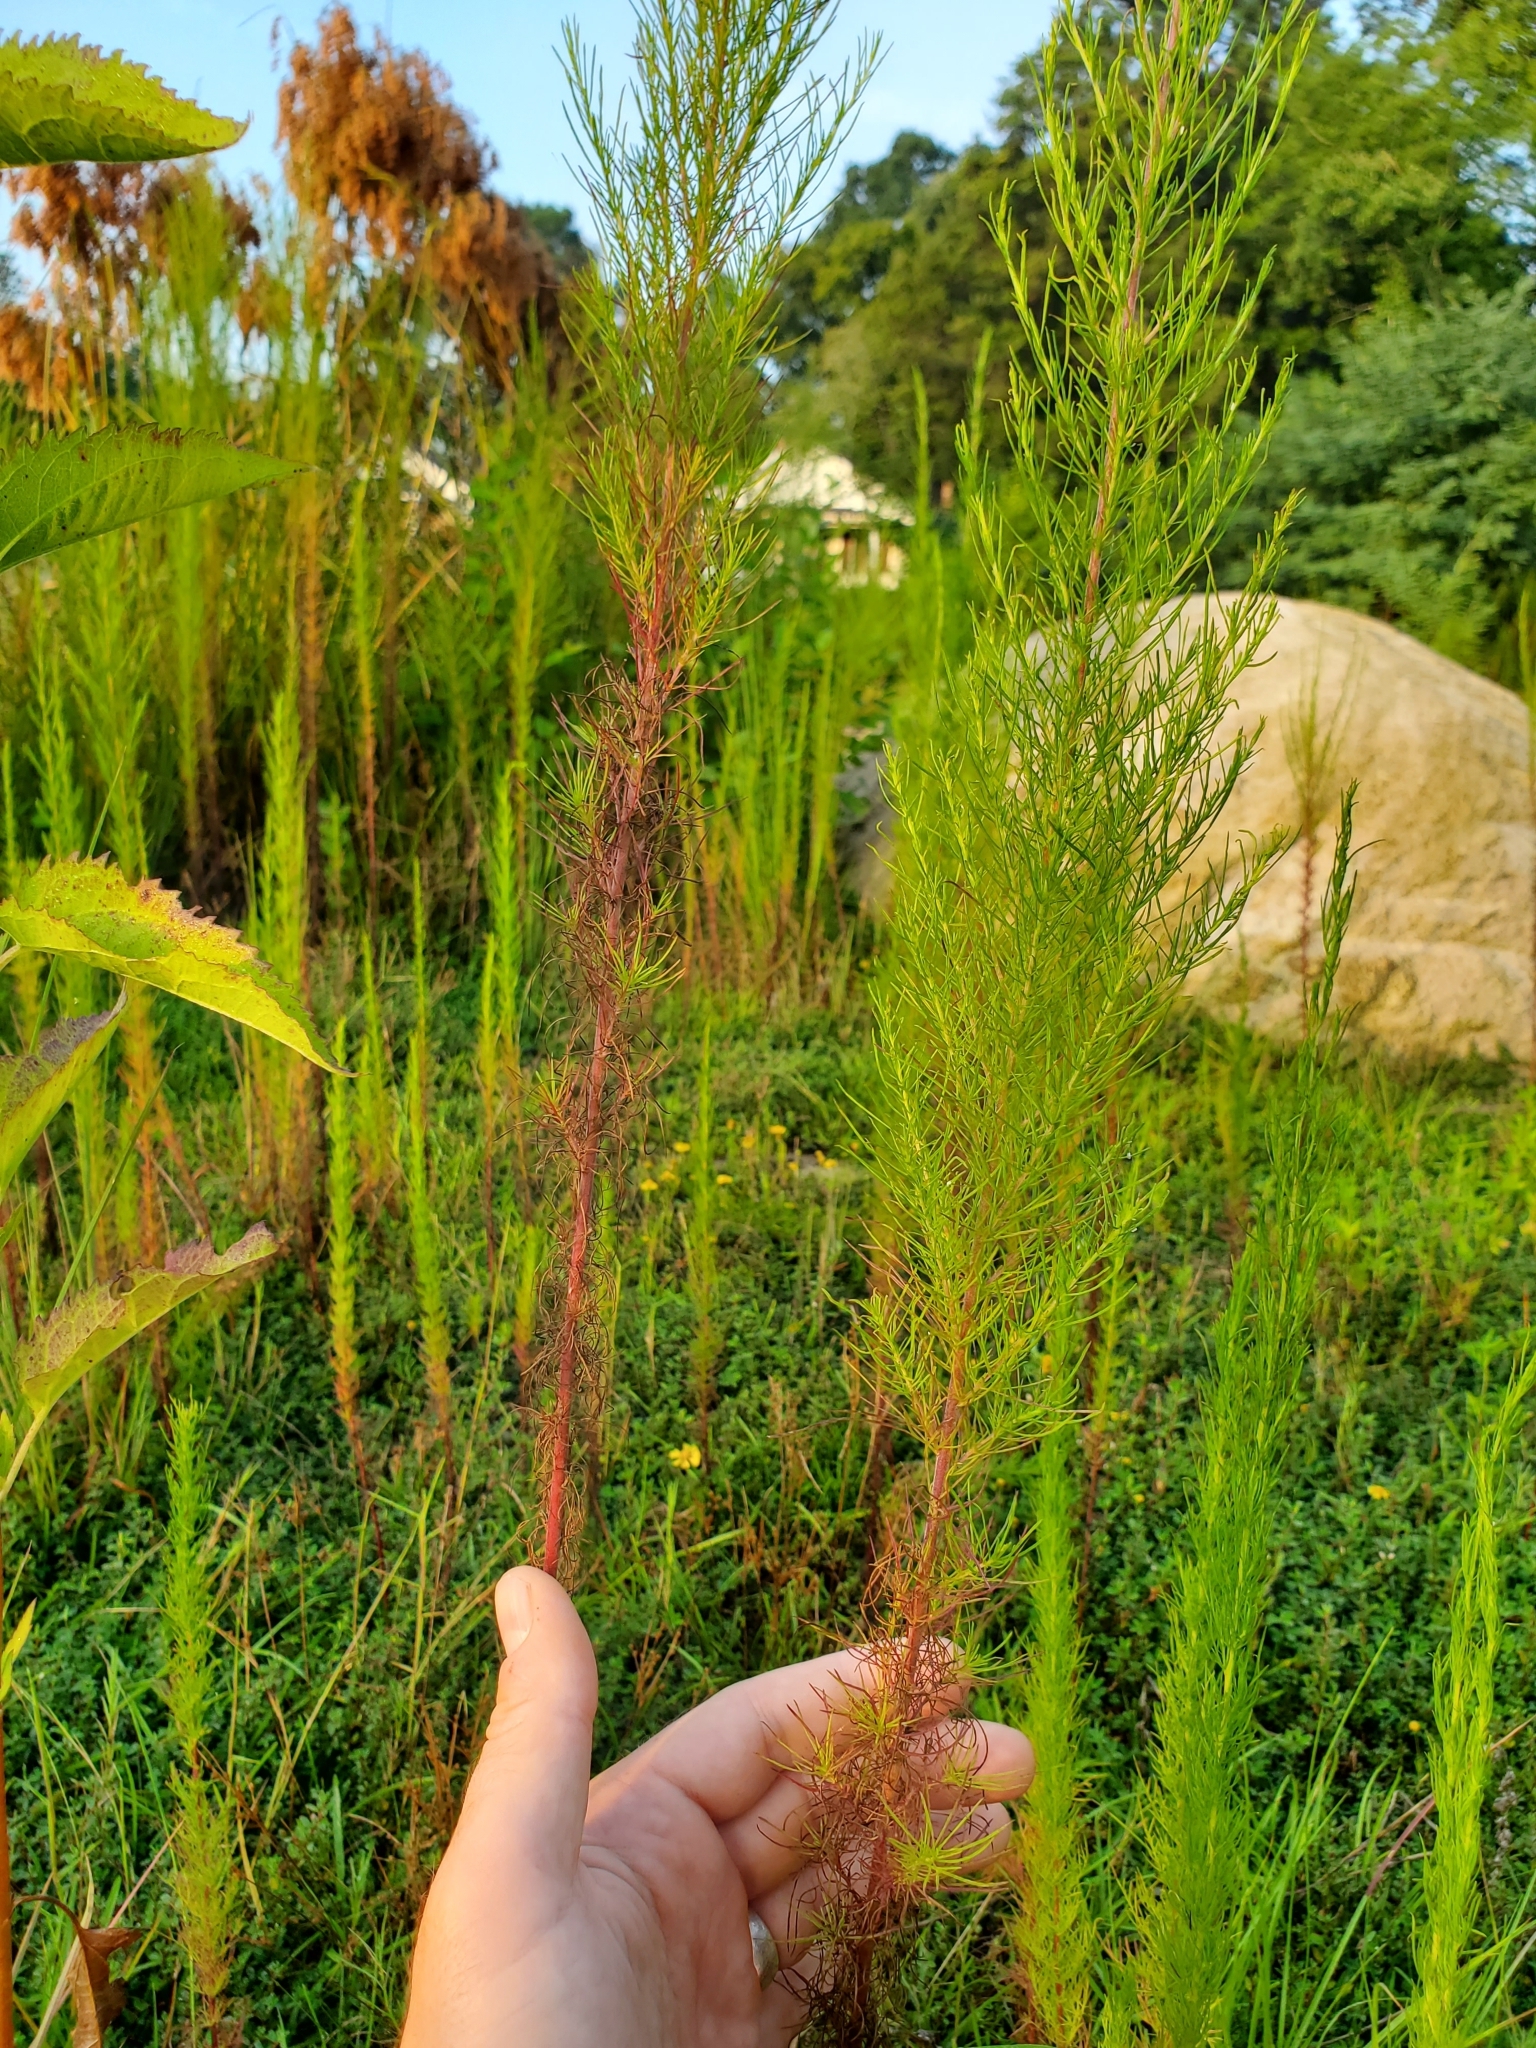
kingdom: Plantae
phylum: Tracheophyta
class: Magnoliopsida
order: Asterales
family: Asteraceae
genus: Eupatorium
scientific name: Eupatorium capillifolium
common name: Dog-fennel
